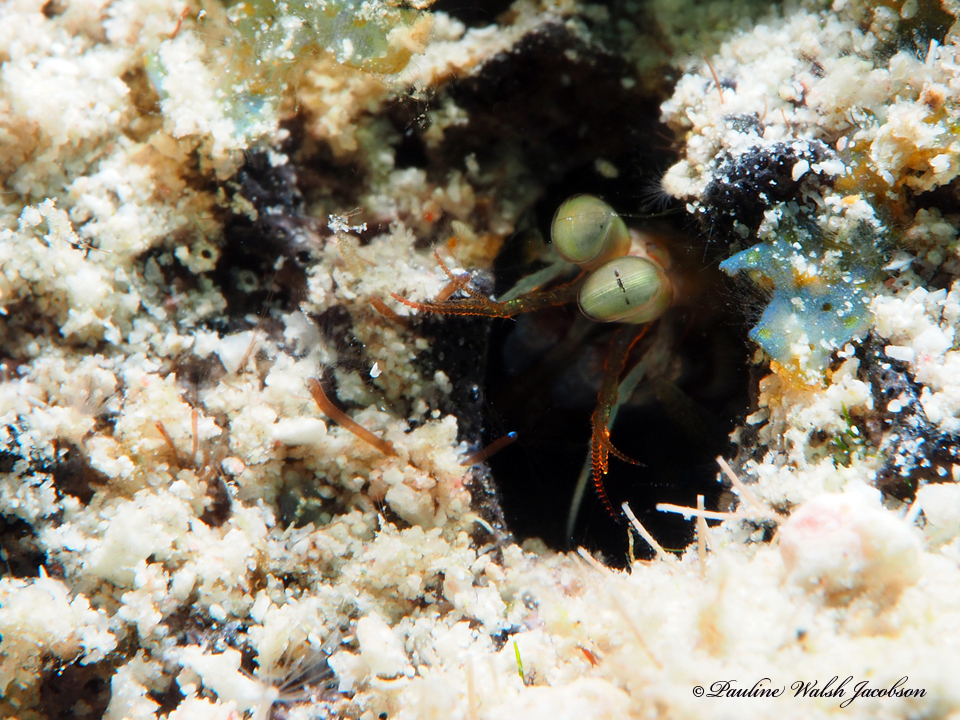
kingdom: Animalia
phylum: Arthropoda
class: Malacostraca
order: Stomatopoda
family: Gonodactylidae
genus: Neogonodactylus
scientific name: Neogonodactylus curacaoensis
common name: Dark mantis
